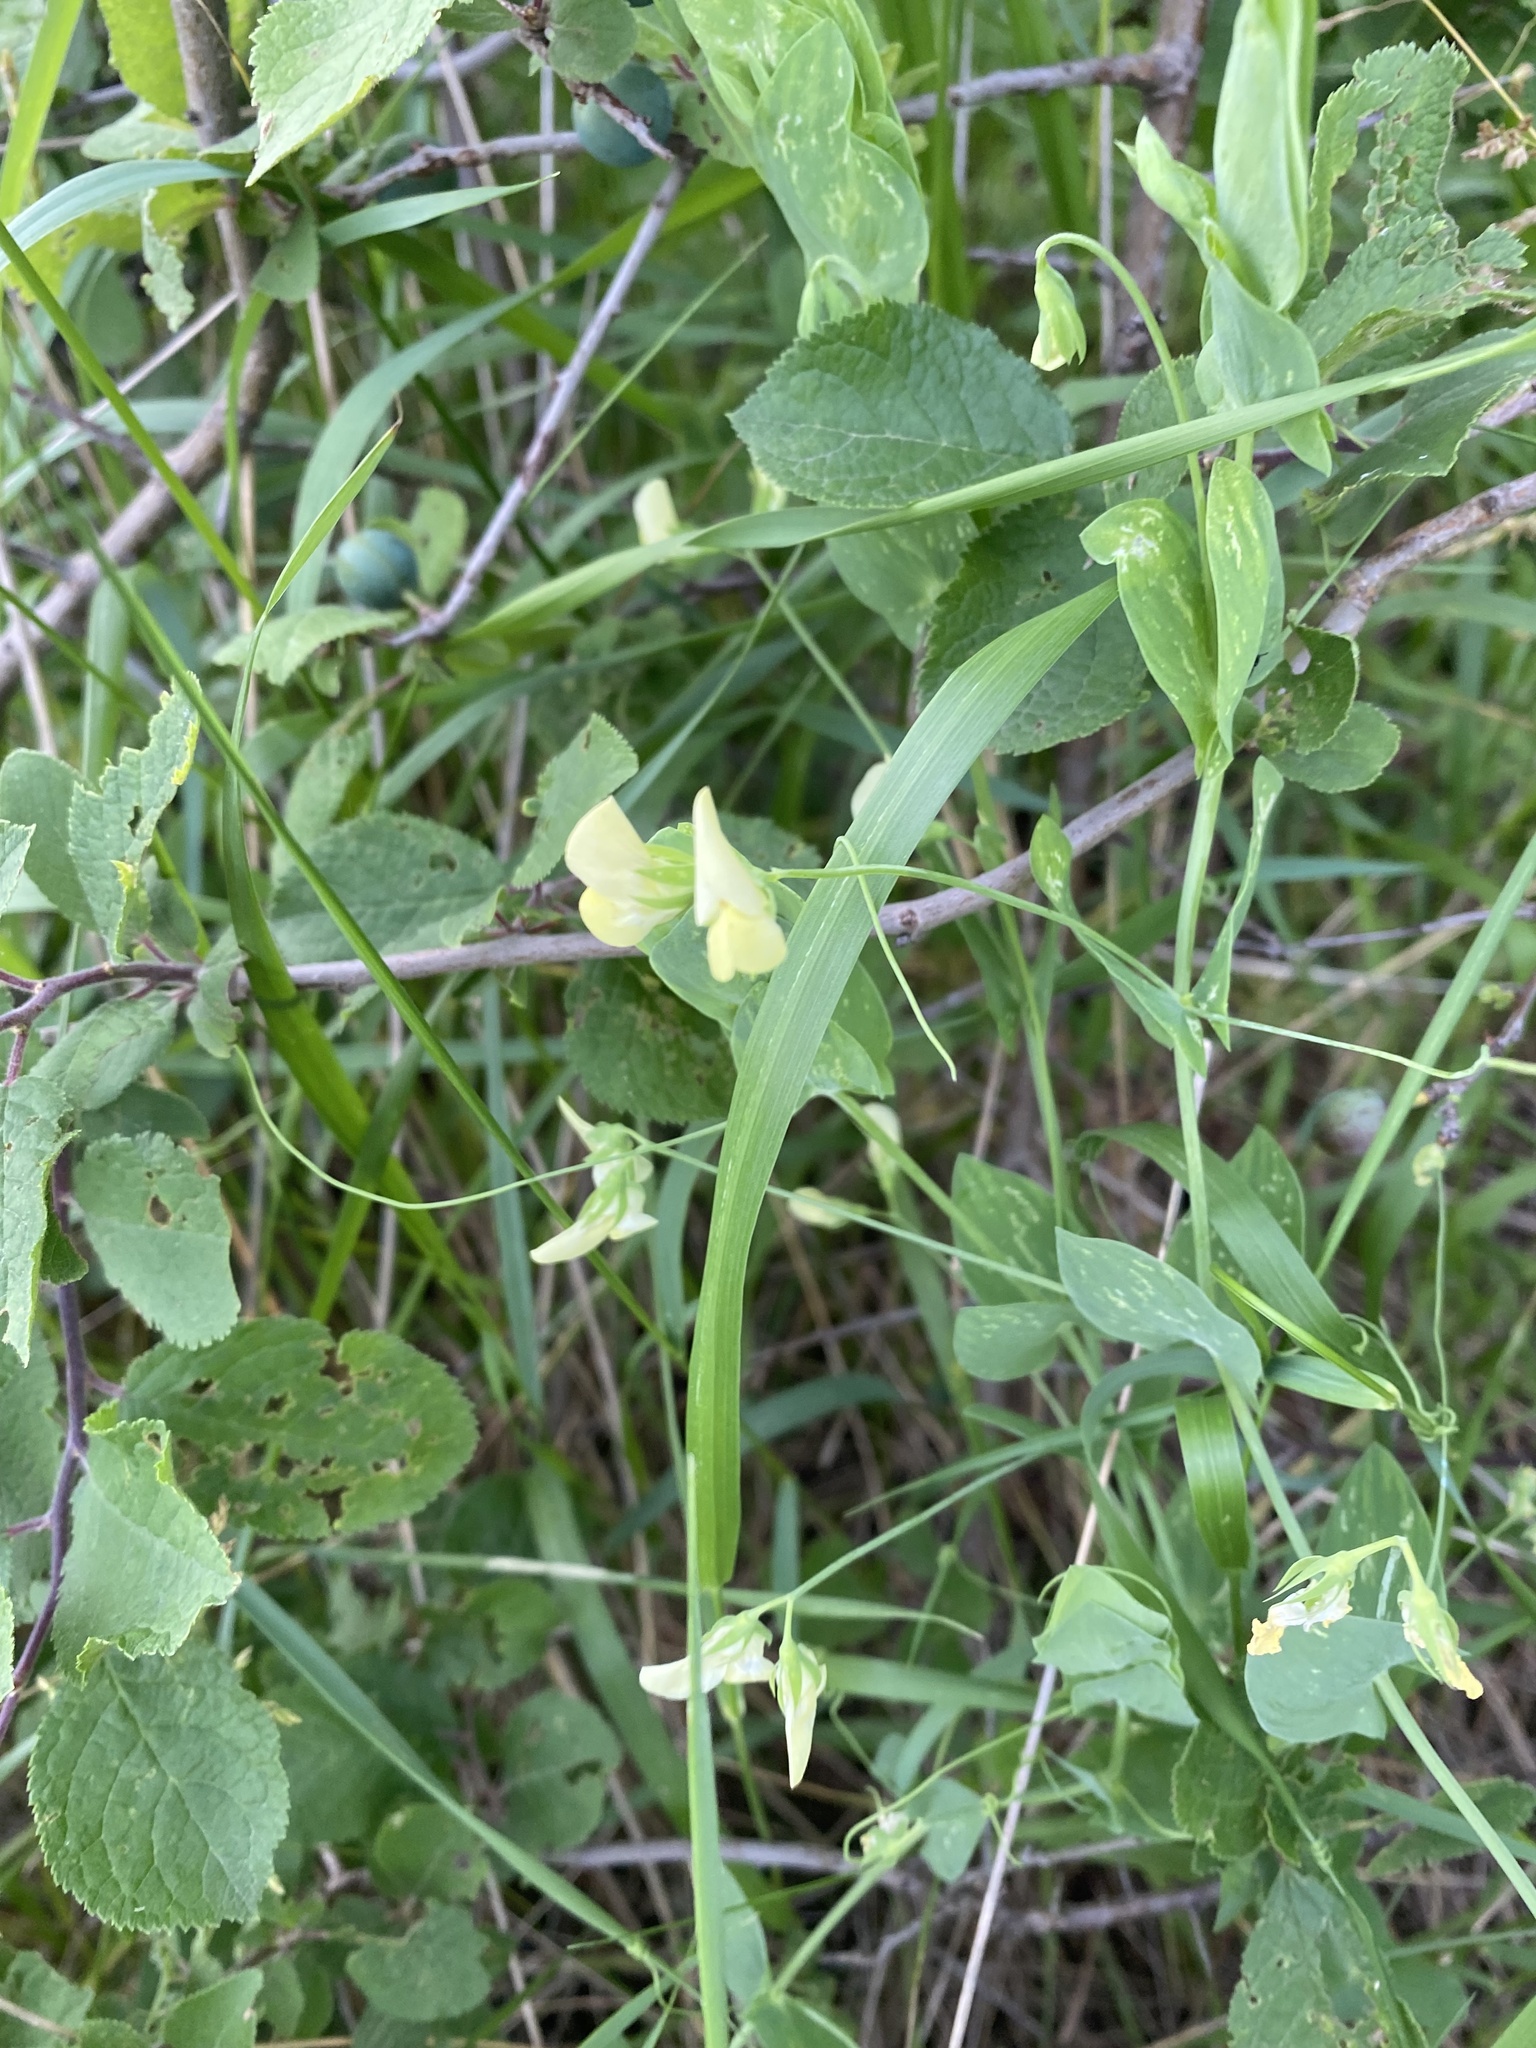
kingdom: Plantae
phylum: Tracheophyta
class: Magnoliopsida
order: Fabales
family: Fabaceae
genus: Lathyrus
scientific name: Lathyrus aphaca
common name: Yellow vetchling
